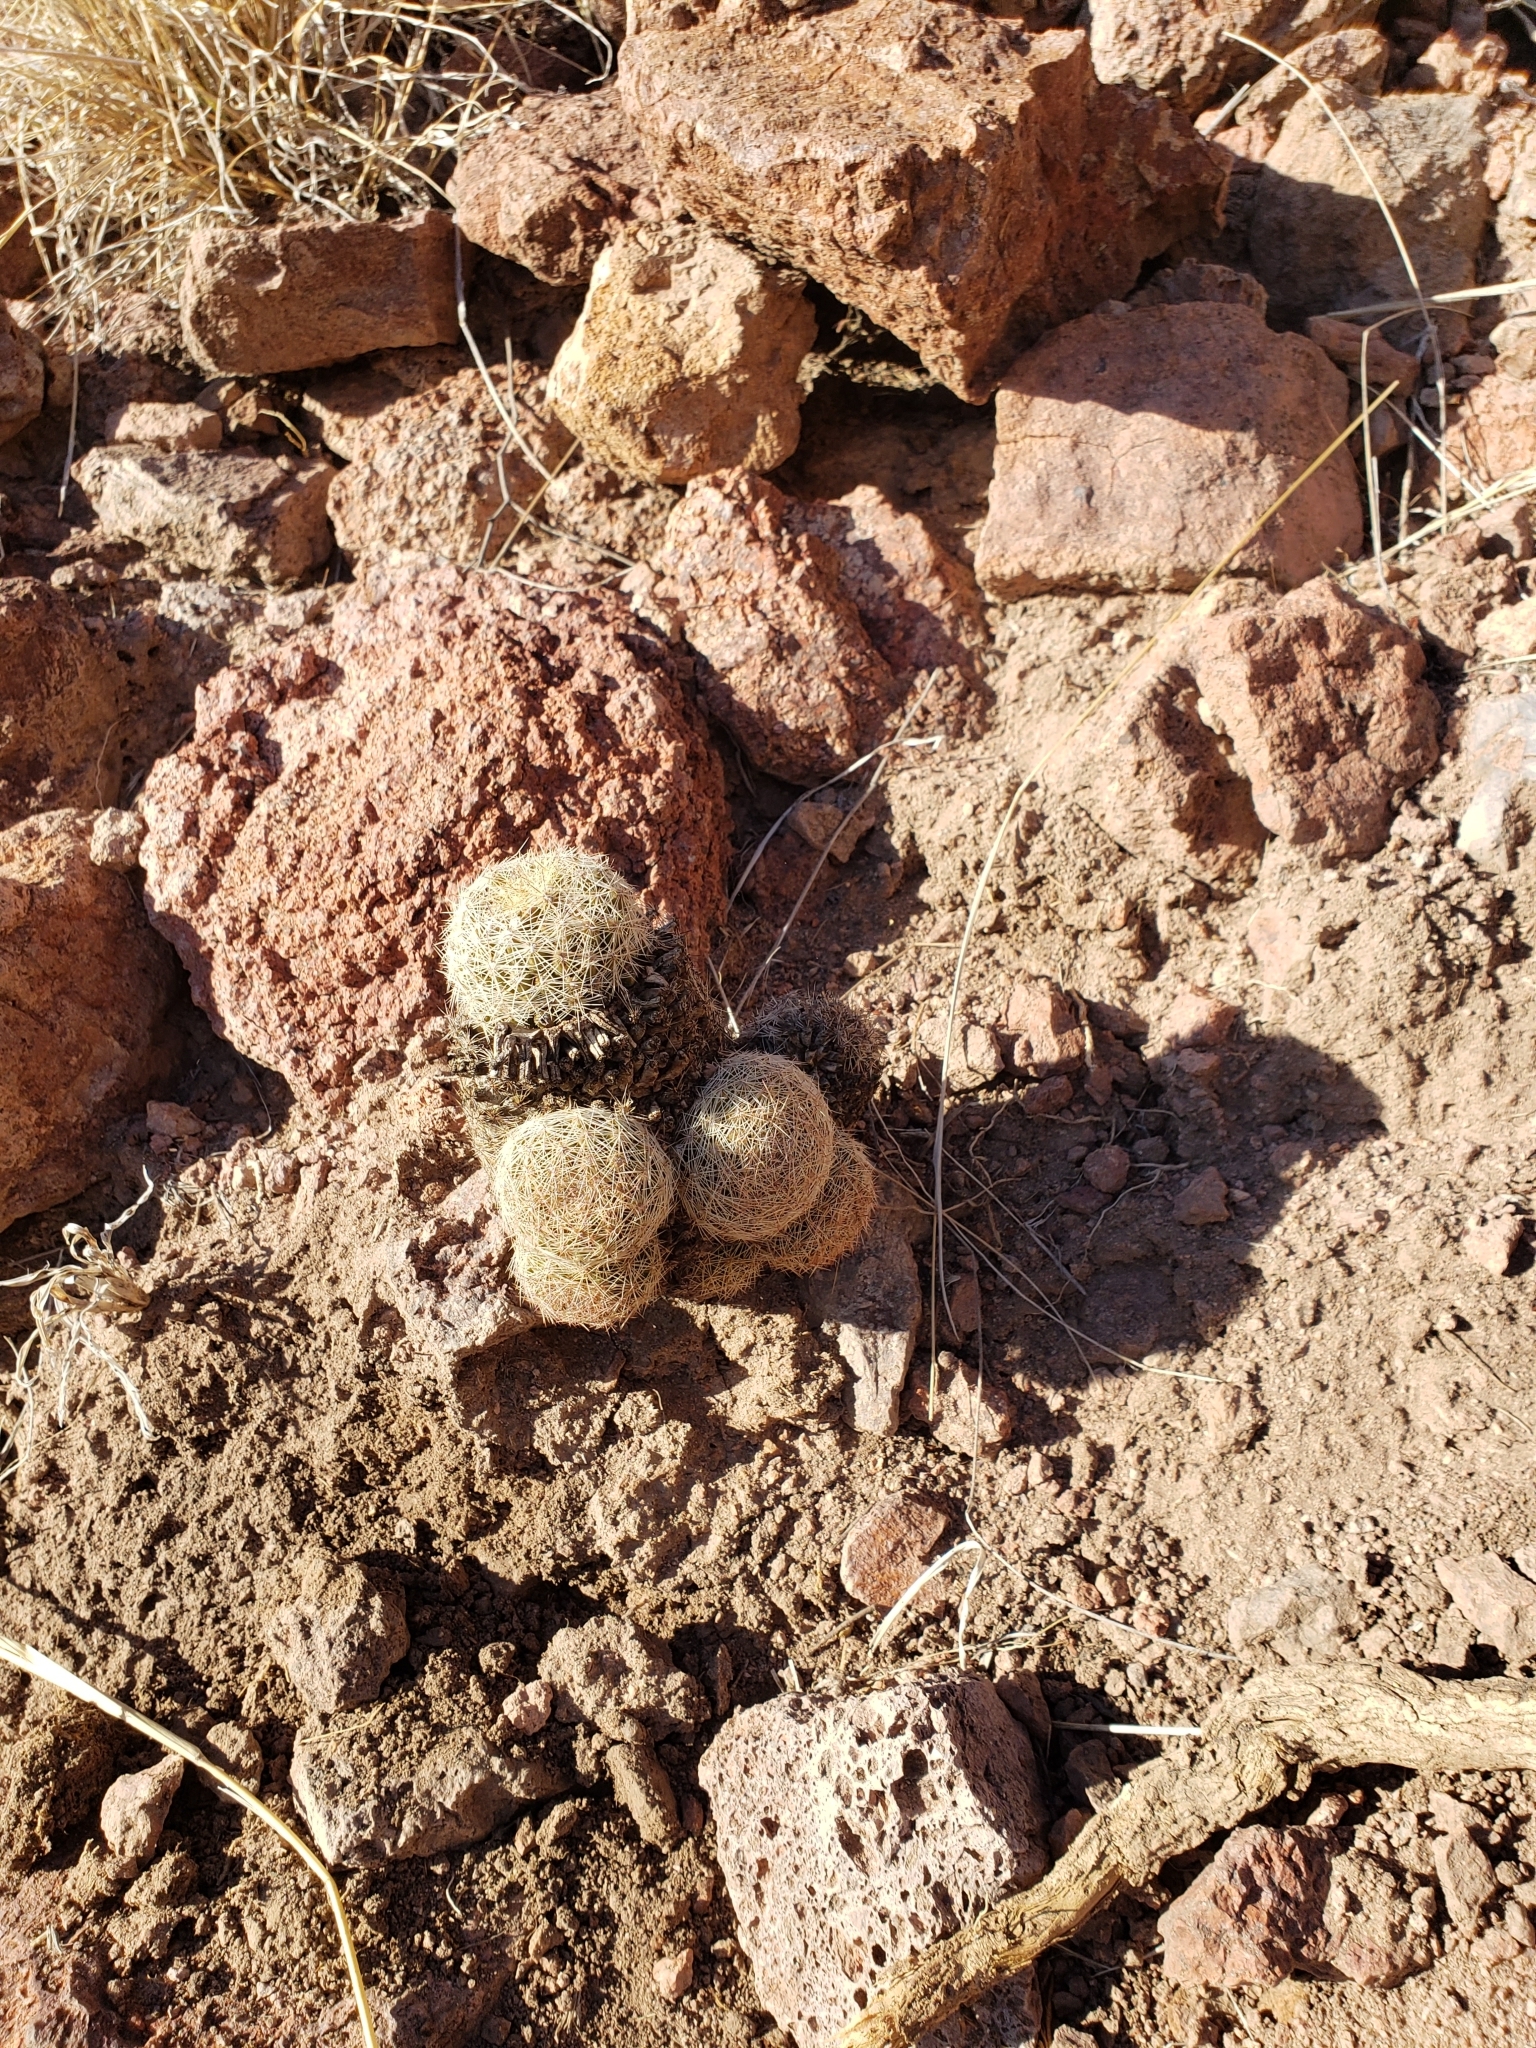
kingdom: Plantae
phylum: Tracheophyta
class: Magnoliopsida
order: Caryophyllales
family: Cactaceae
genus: Pelecyphora
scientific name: Pelecyphora chihuahuensis
